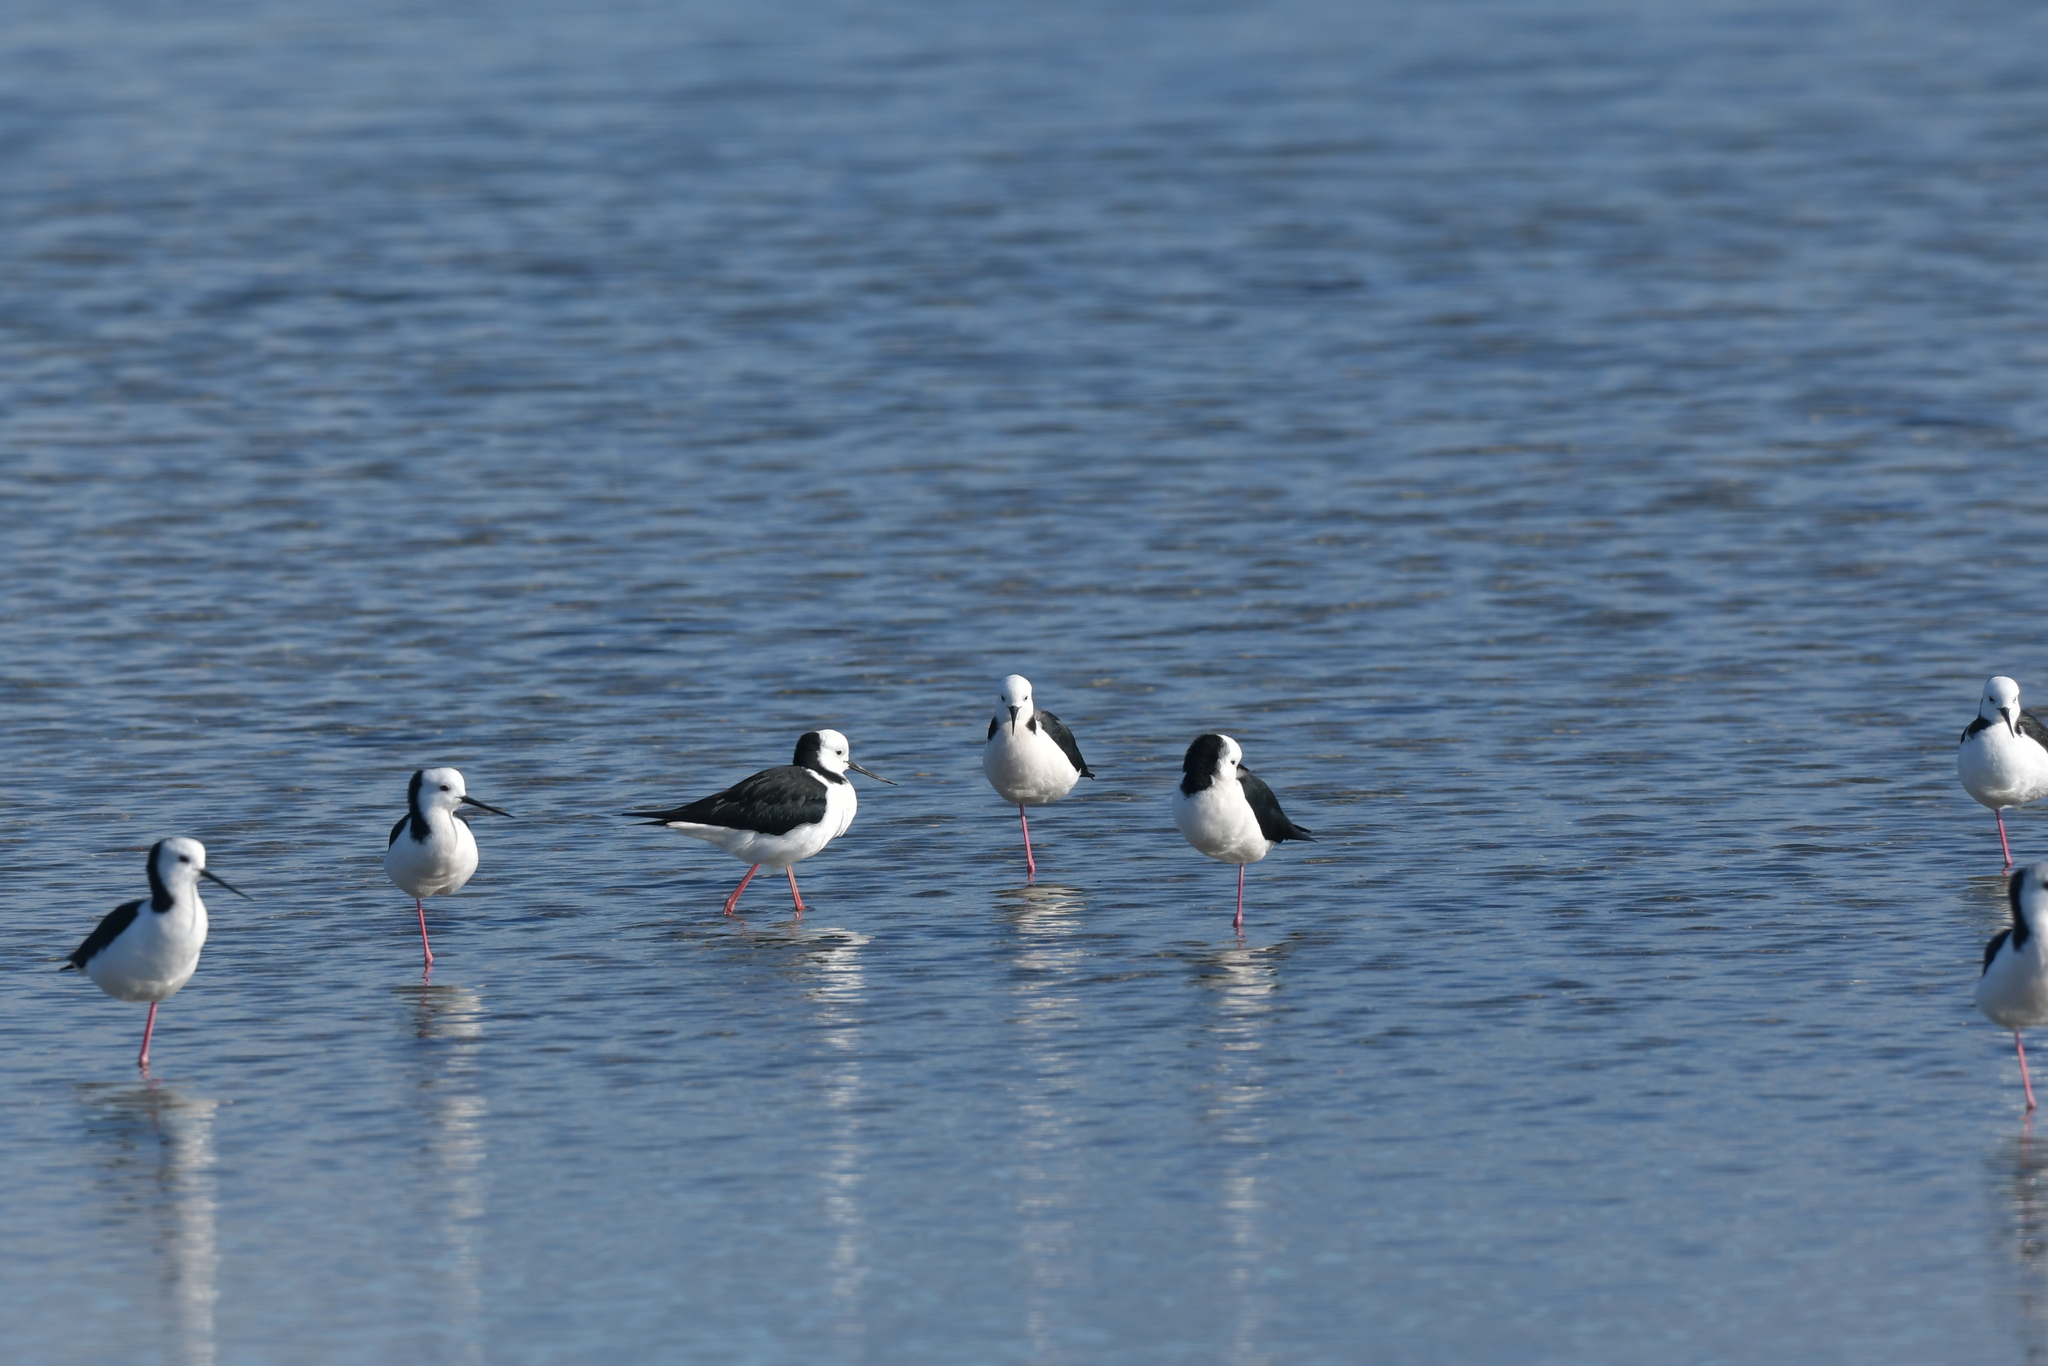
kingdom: Animalia
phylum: Chordata
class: Aves
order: Charadriiformes
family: Recurvirostridae
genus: Himantopus
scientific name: Himantopus leucocephalus
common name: White-headed stilt
